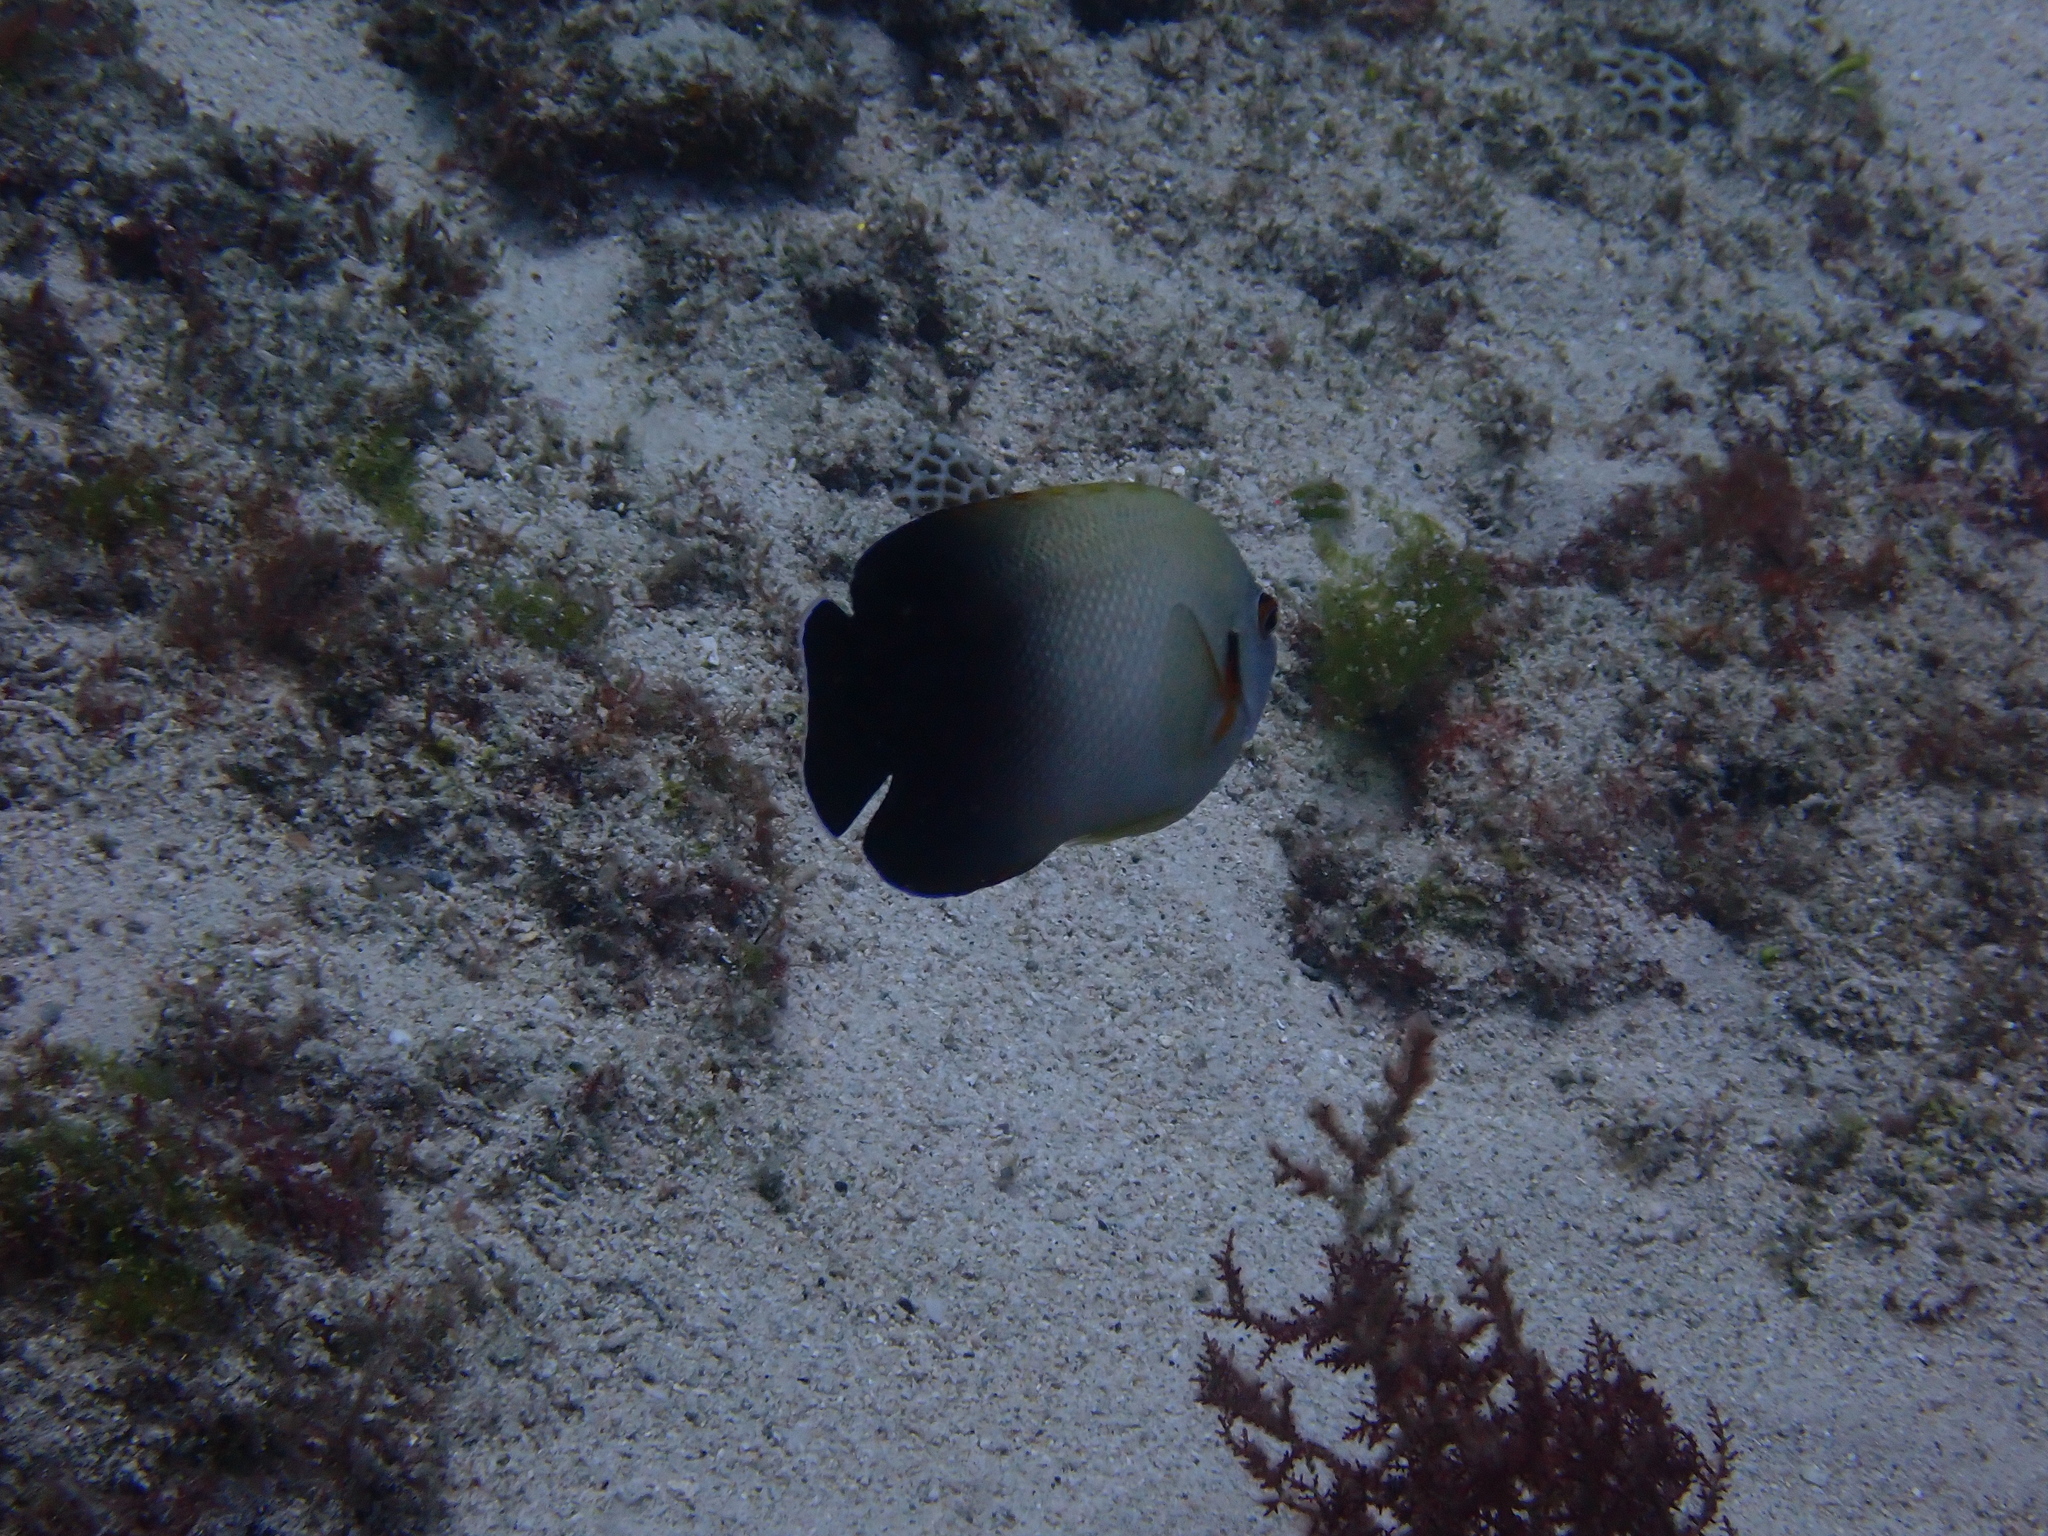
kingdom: Animalia
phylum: Chordata
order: Perciformes
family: Pomacanthidae
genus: Centropyge
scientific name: Centropyge vrolikii
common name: Pearlscale angelfish
